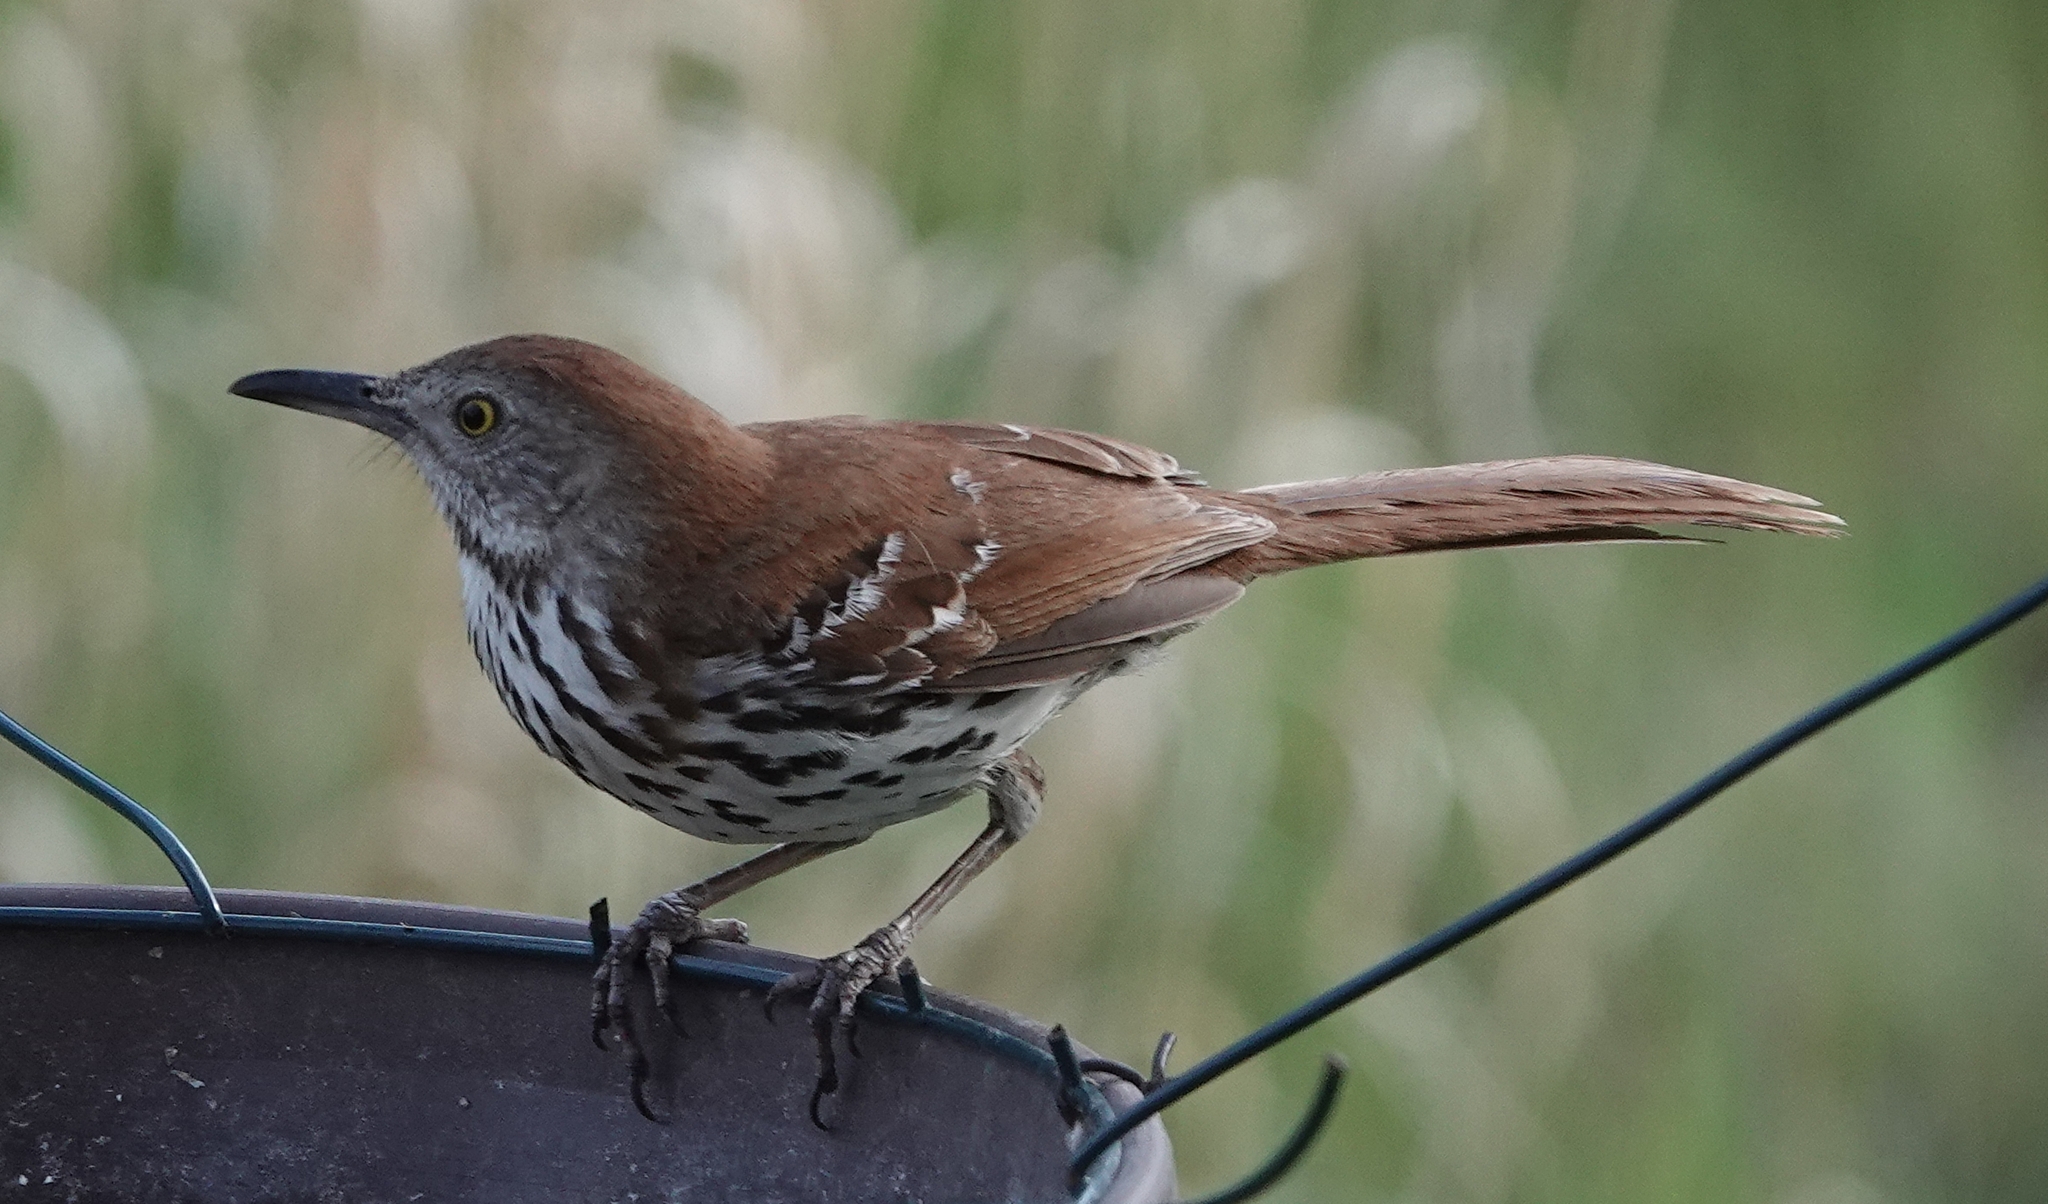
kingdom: Animalia
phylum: Chordata
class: Aves
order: Passeriformes
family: Mimidae
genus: Toxostoma
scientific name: Toxostoma rufum
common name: Brown thrasher
